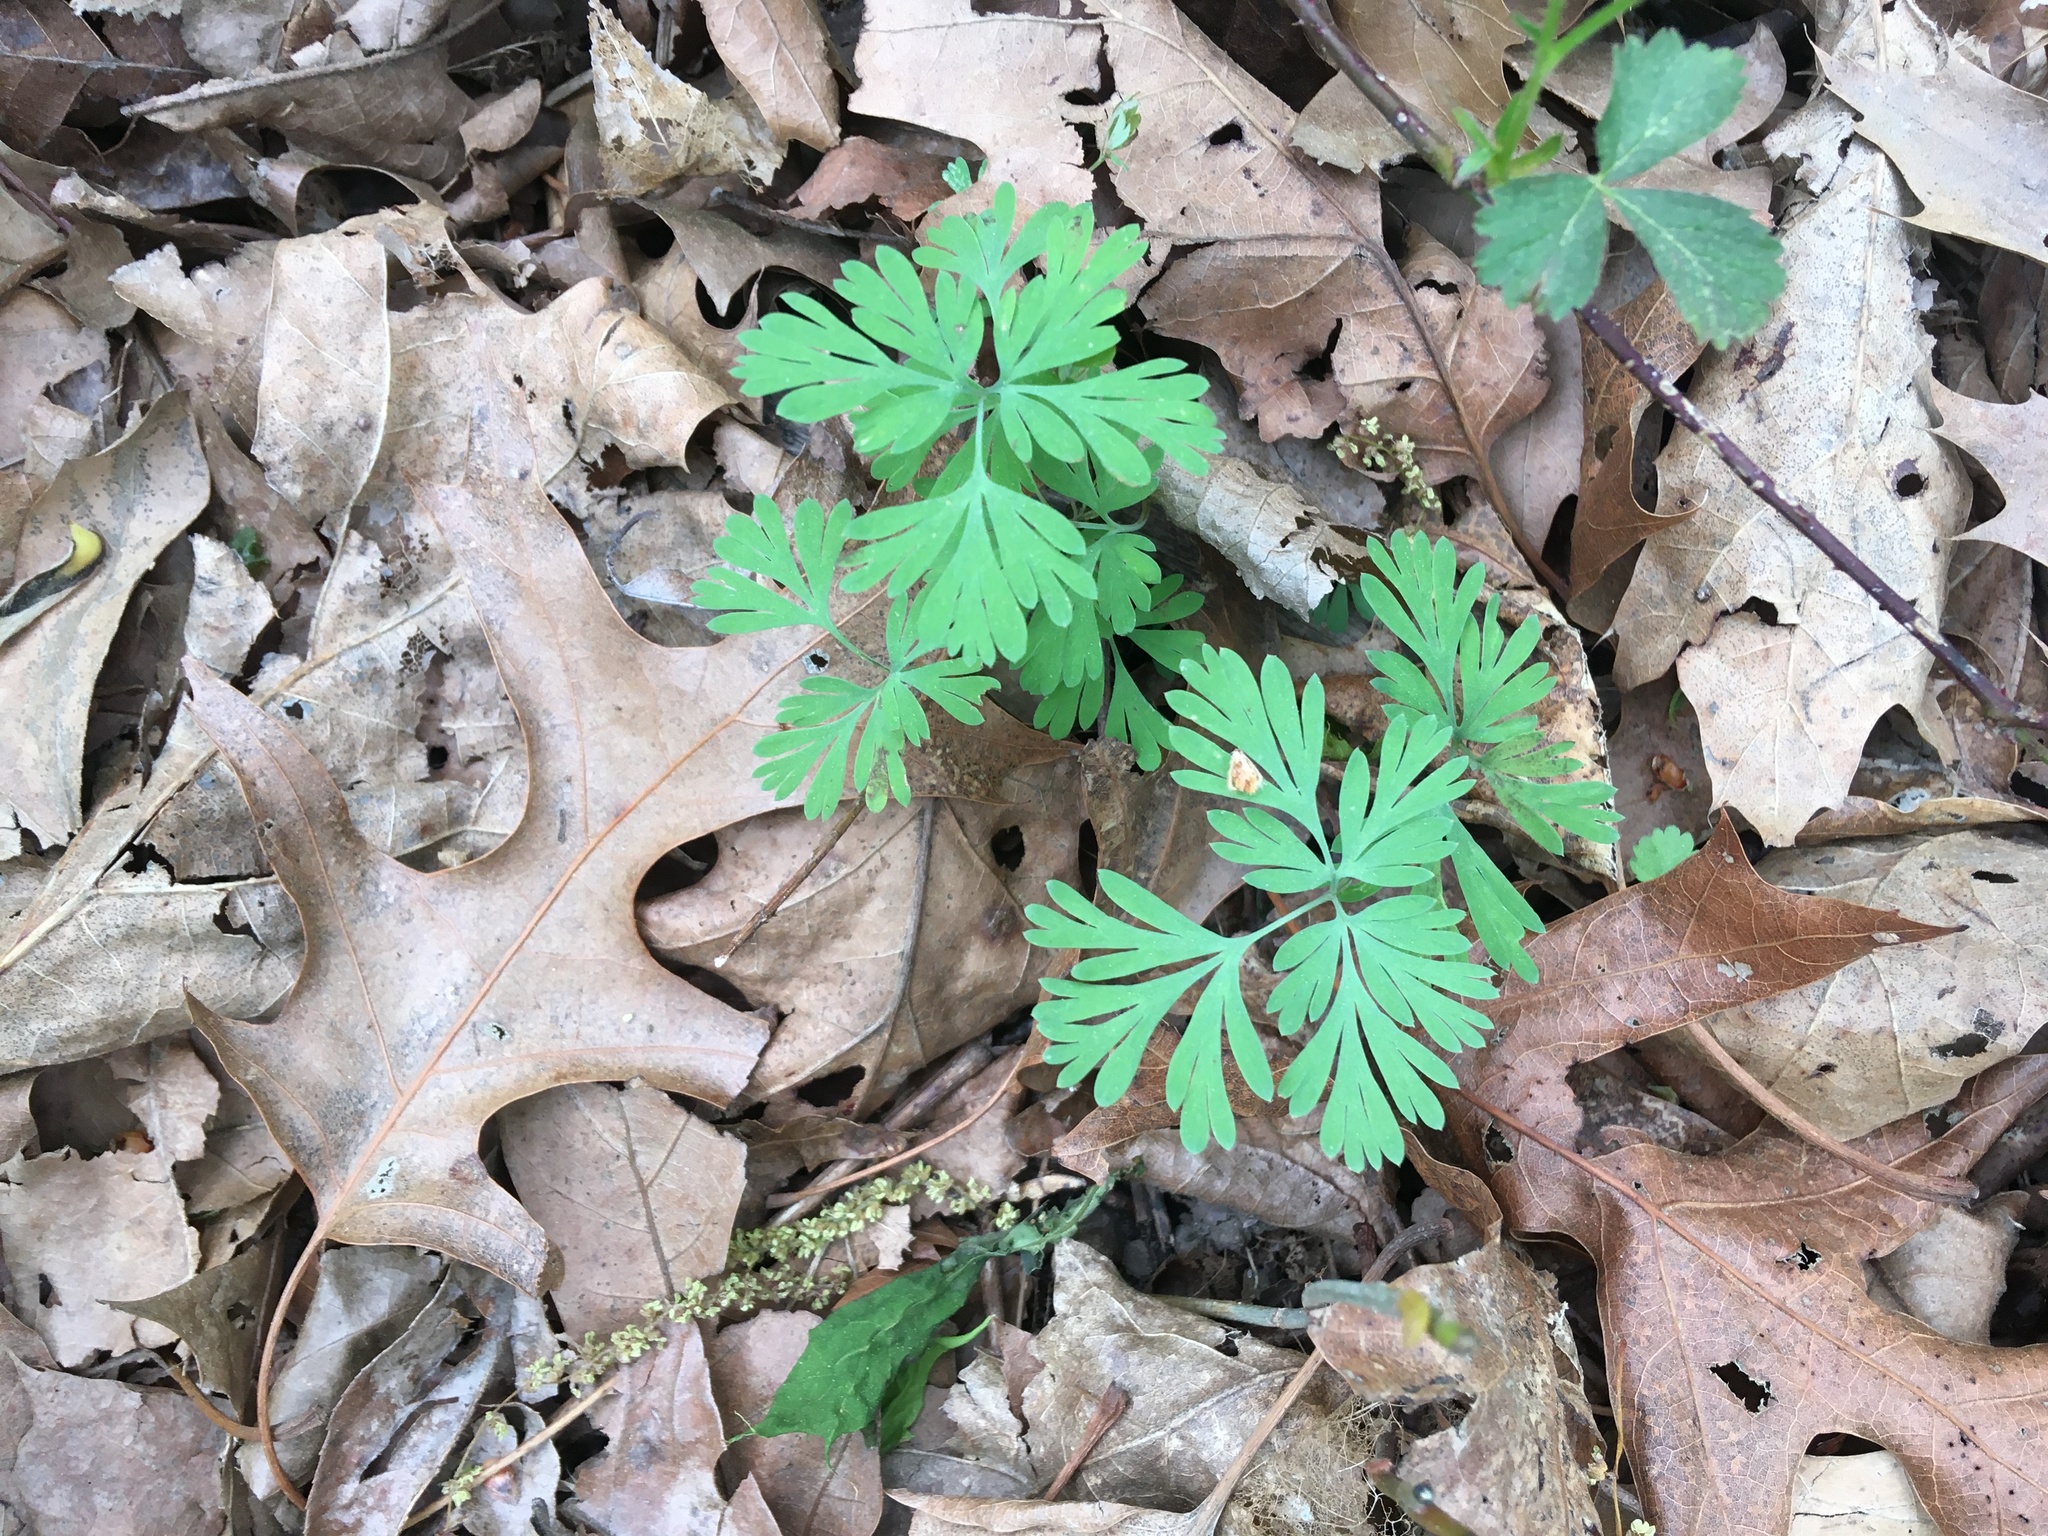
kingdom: Plantae
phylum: Tracheophyta
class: Magnoliopsida
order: Ranunculales
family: Papaveraceae
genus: Dicentra
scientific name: Dicentra cucullaria
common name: Dutchman's breeches
